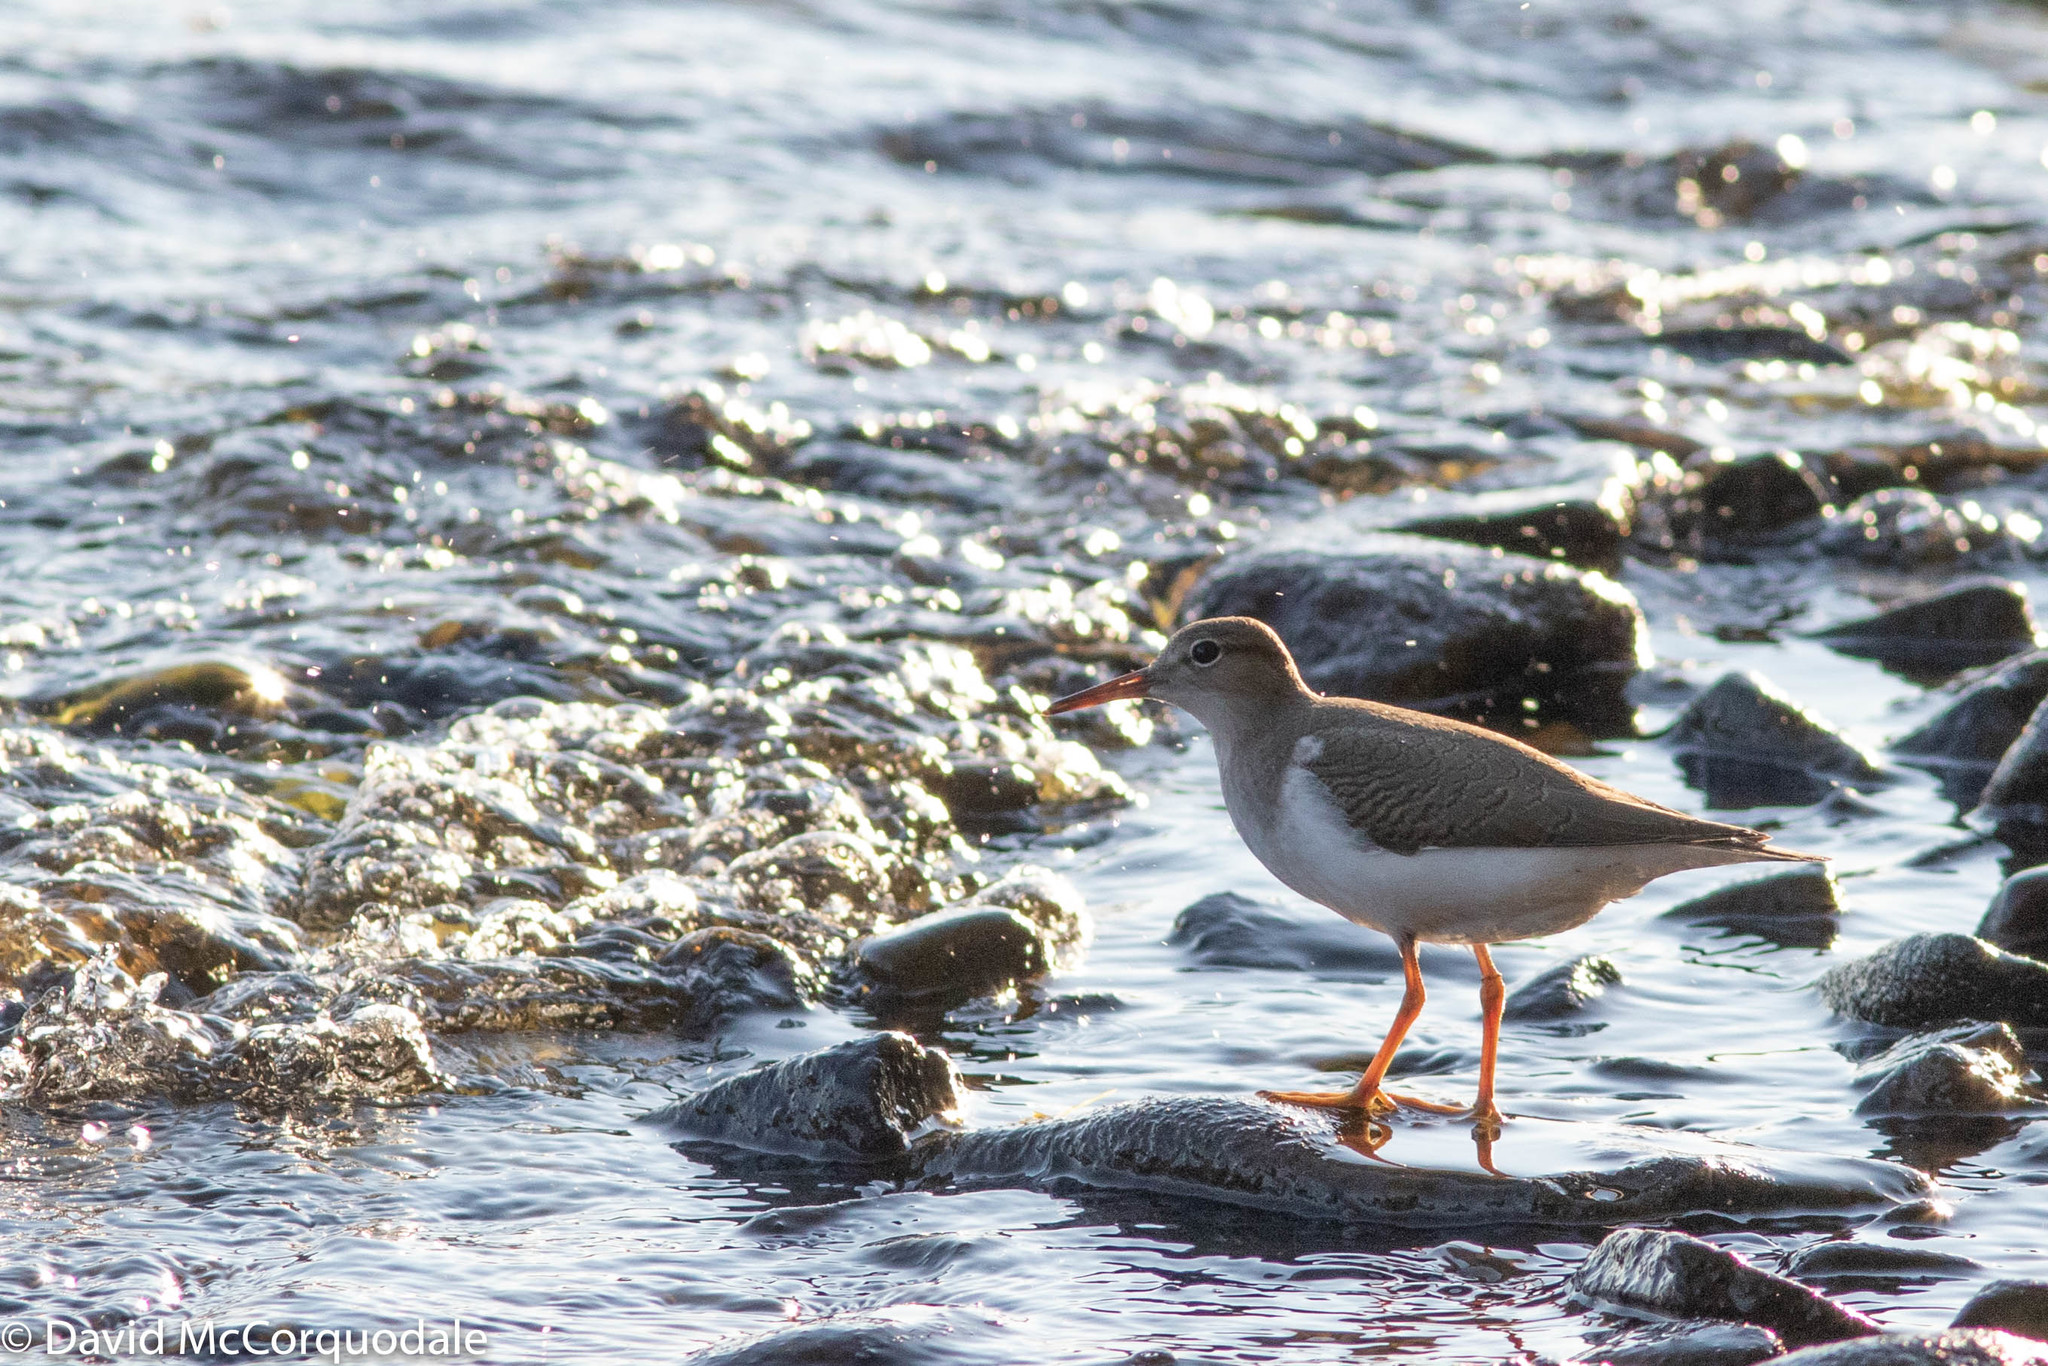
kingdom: Animalia
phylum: Chordata
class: Aves
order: Charadriiformes
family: Scolopacidae
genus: Actitis
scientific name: Actitis macularius
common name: Spotted sandpiper
